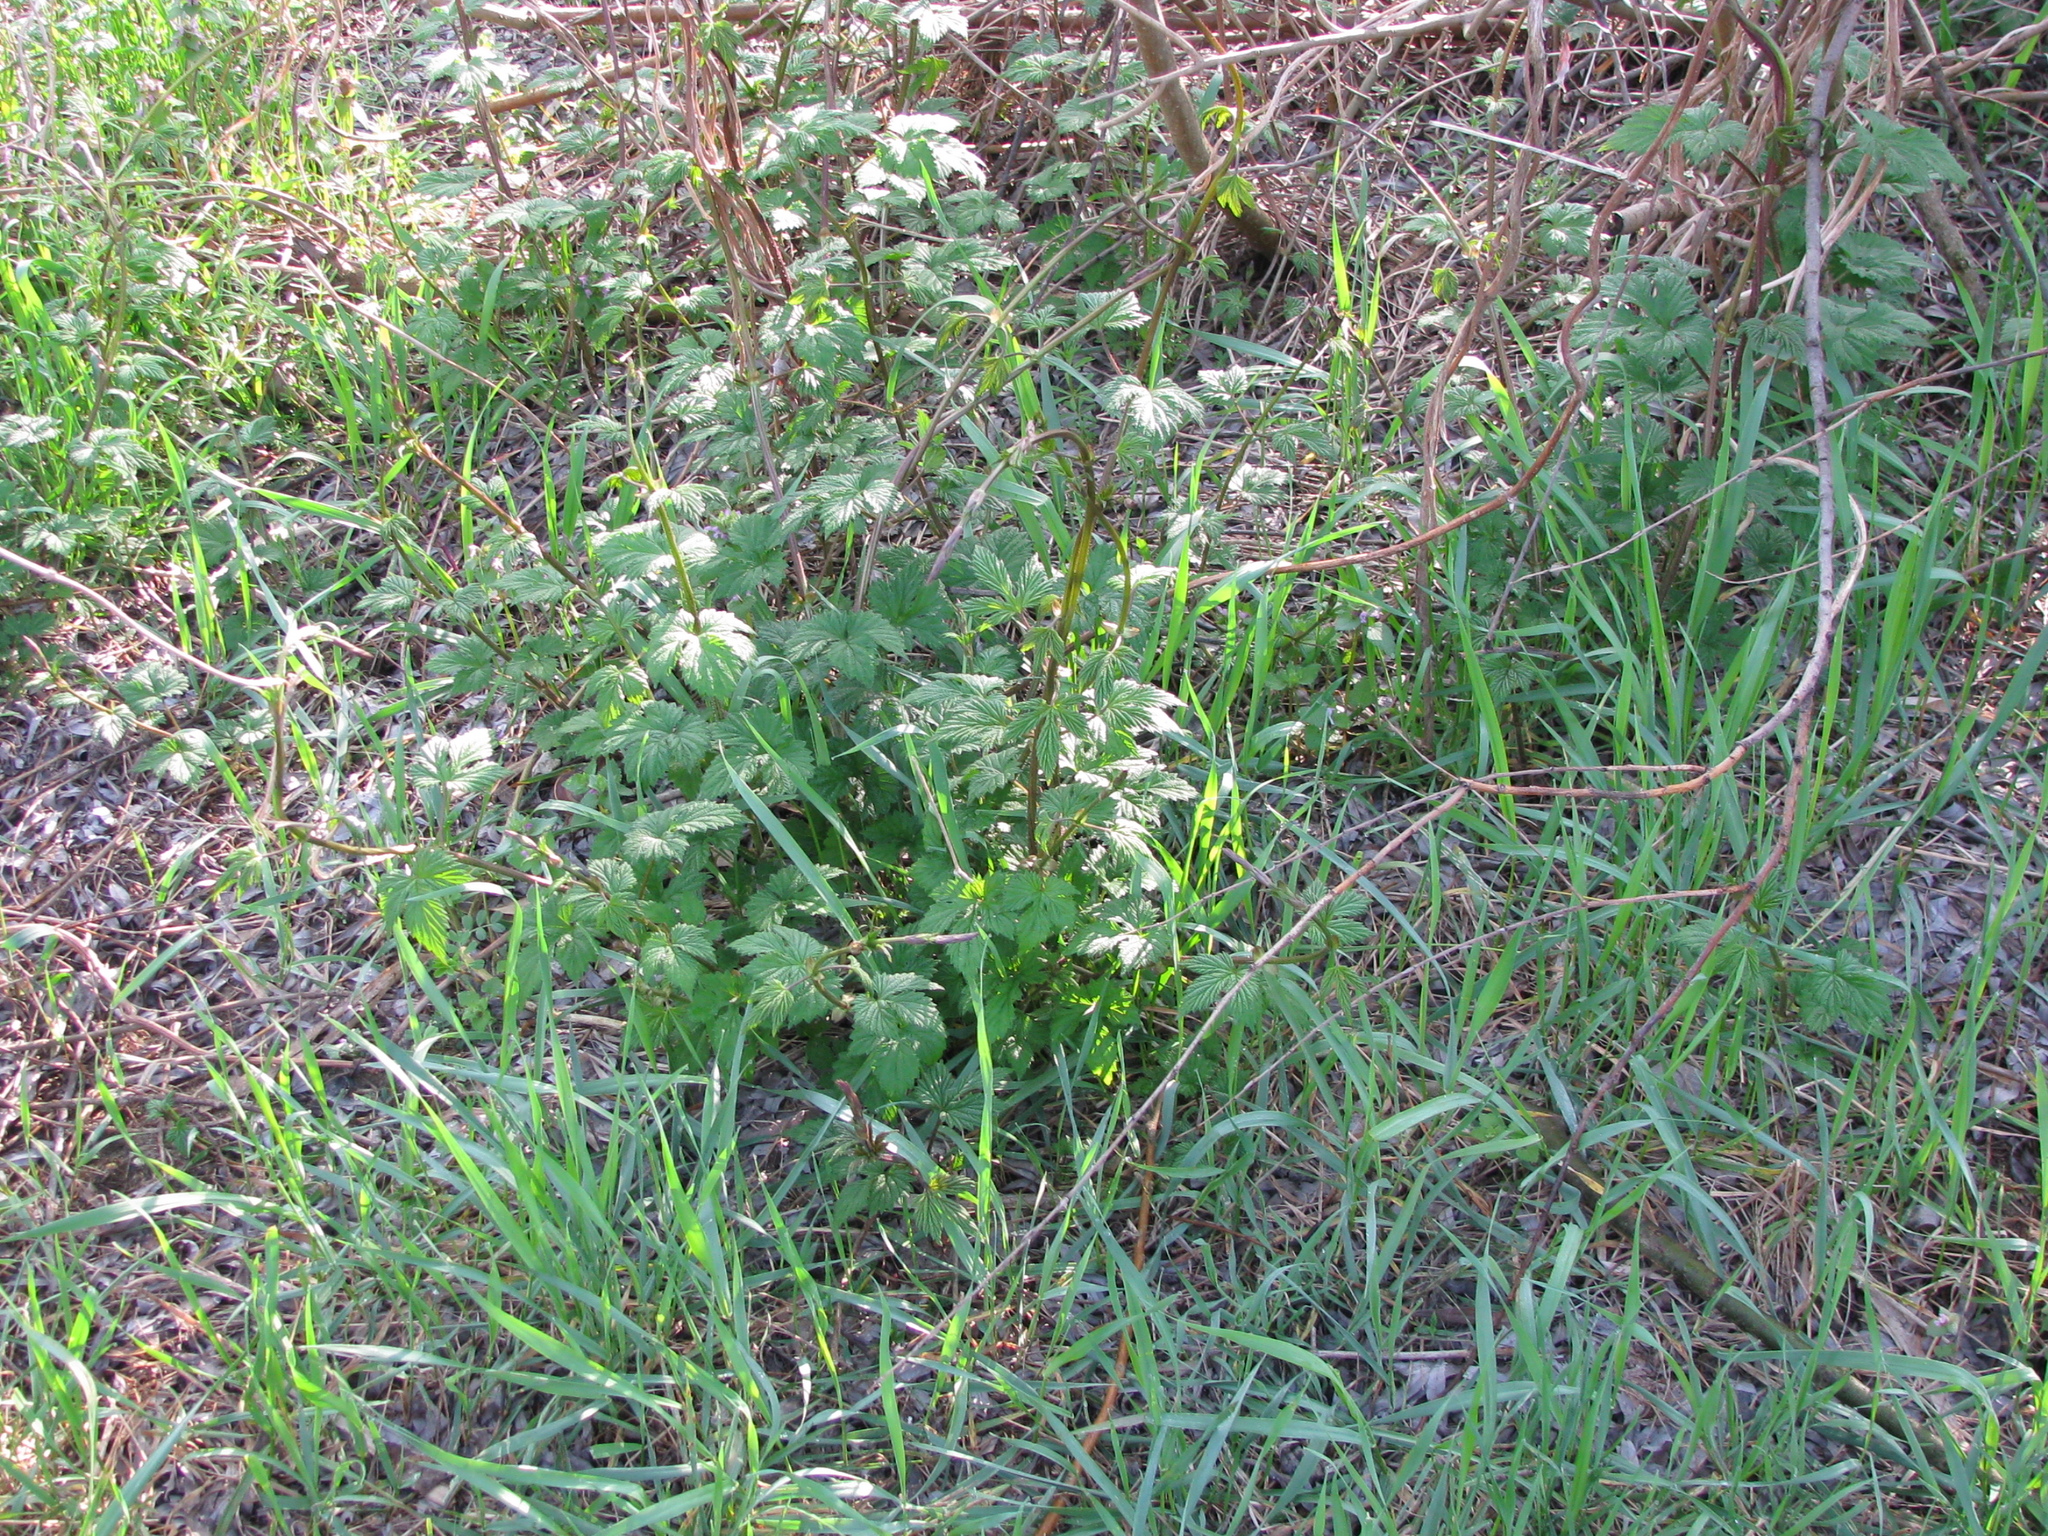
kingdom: Plantae
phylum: Tracheophyta
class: Magnoliopsida
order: Rosales
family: Cannabaceae
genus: Humulus
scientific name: Humulus lupulus
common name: Hop
